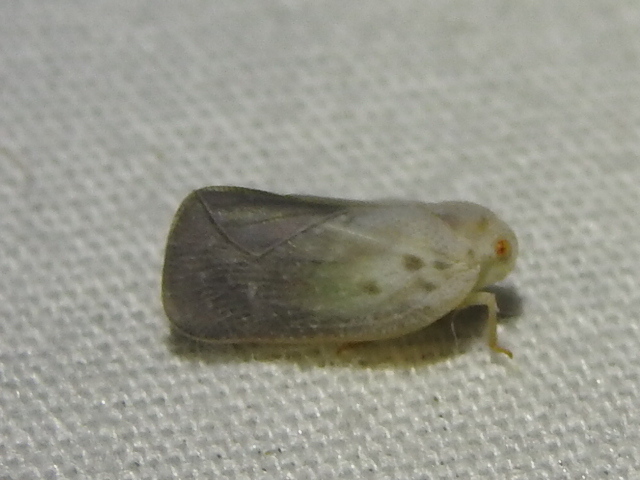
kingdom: Animalia
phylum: Arthropoda
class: Insecta
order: Hemiptera
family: Flatidae
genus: Metcalfa
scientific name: Metcalfa pruinosa
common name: Citrus flatid planthopper
